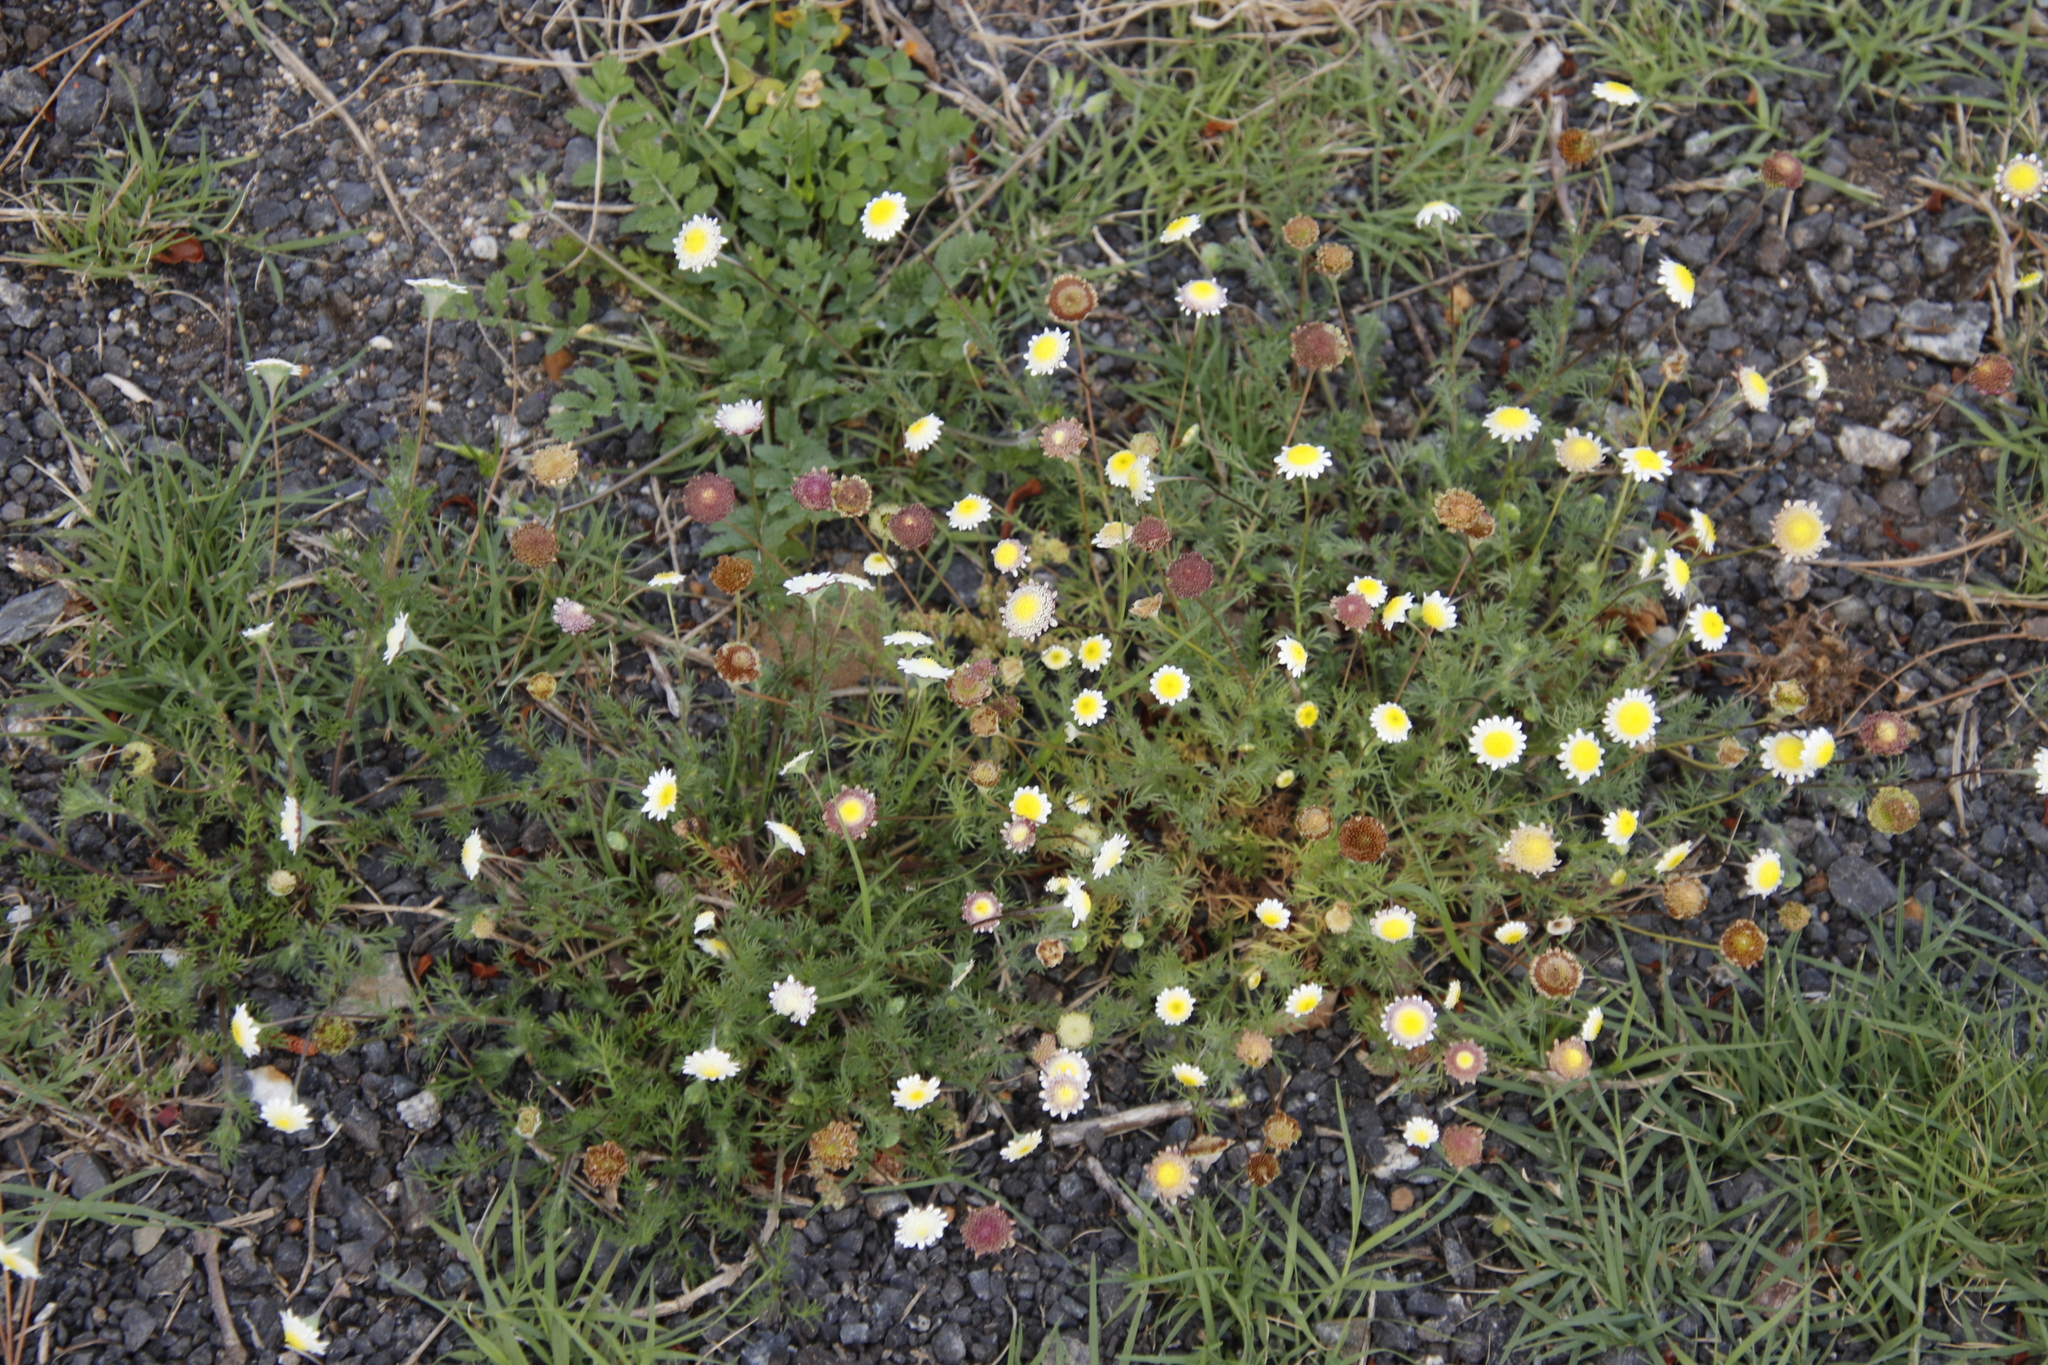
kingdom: Plantae
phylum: Tracheophyta
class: Magnoliopsida
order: Asterales
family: Asteraceae
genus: Cotula
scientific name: Cotula turbinata
